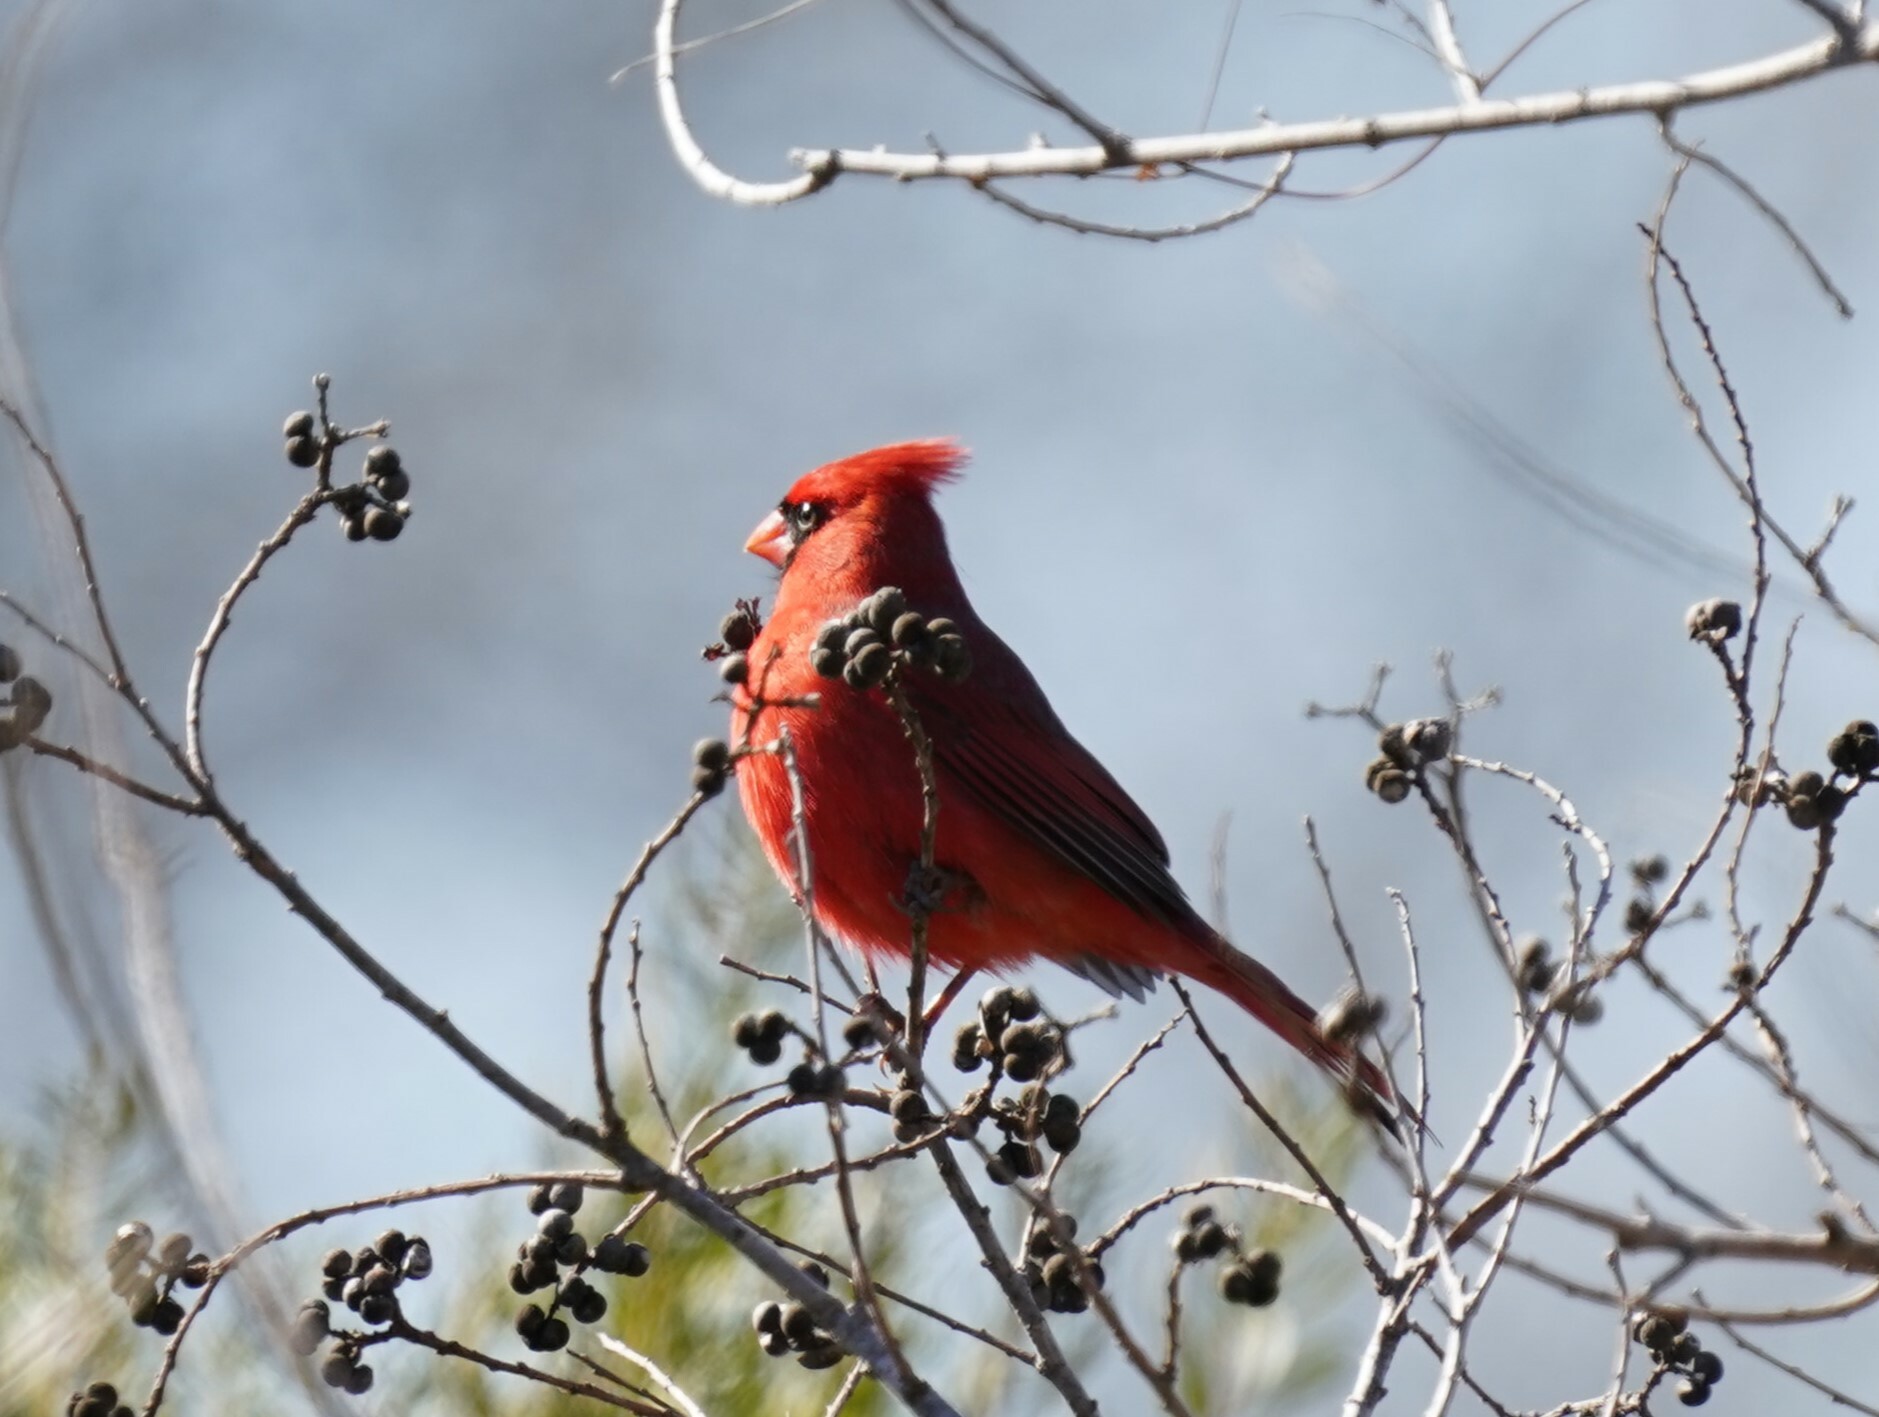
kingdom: Animalia
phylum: Chordata
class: Aves
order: Passeriformes
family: Cardinalidae
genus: Cardinalis
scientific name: Cardinalis cardinalis
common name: Northern cardinal
